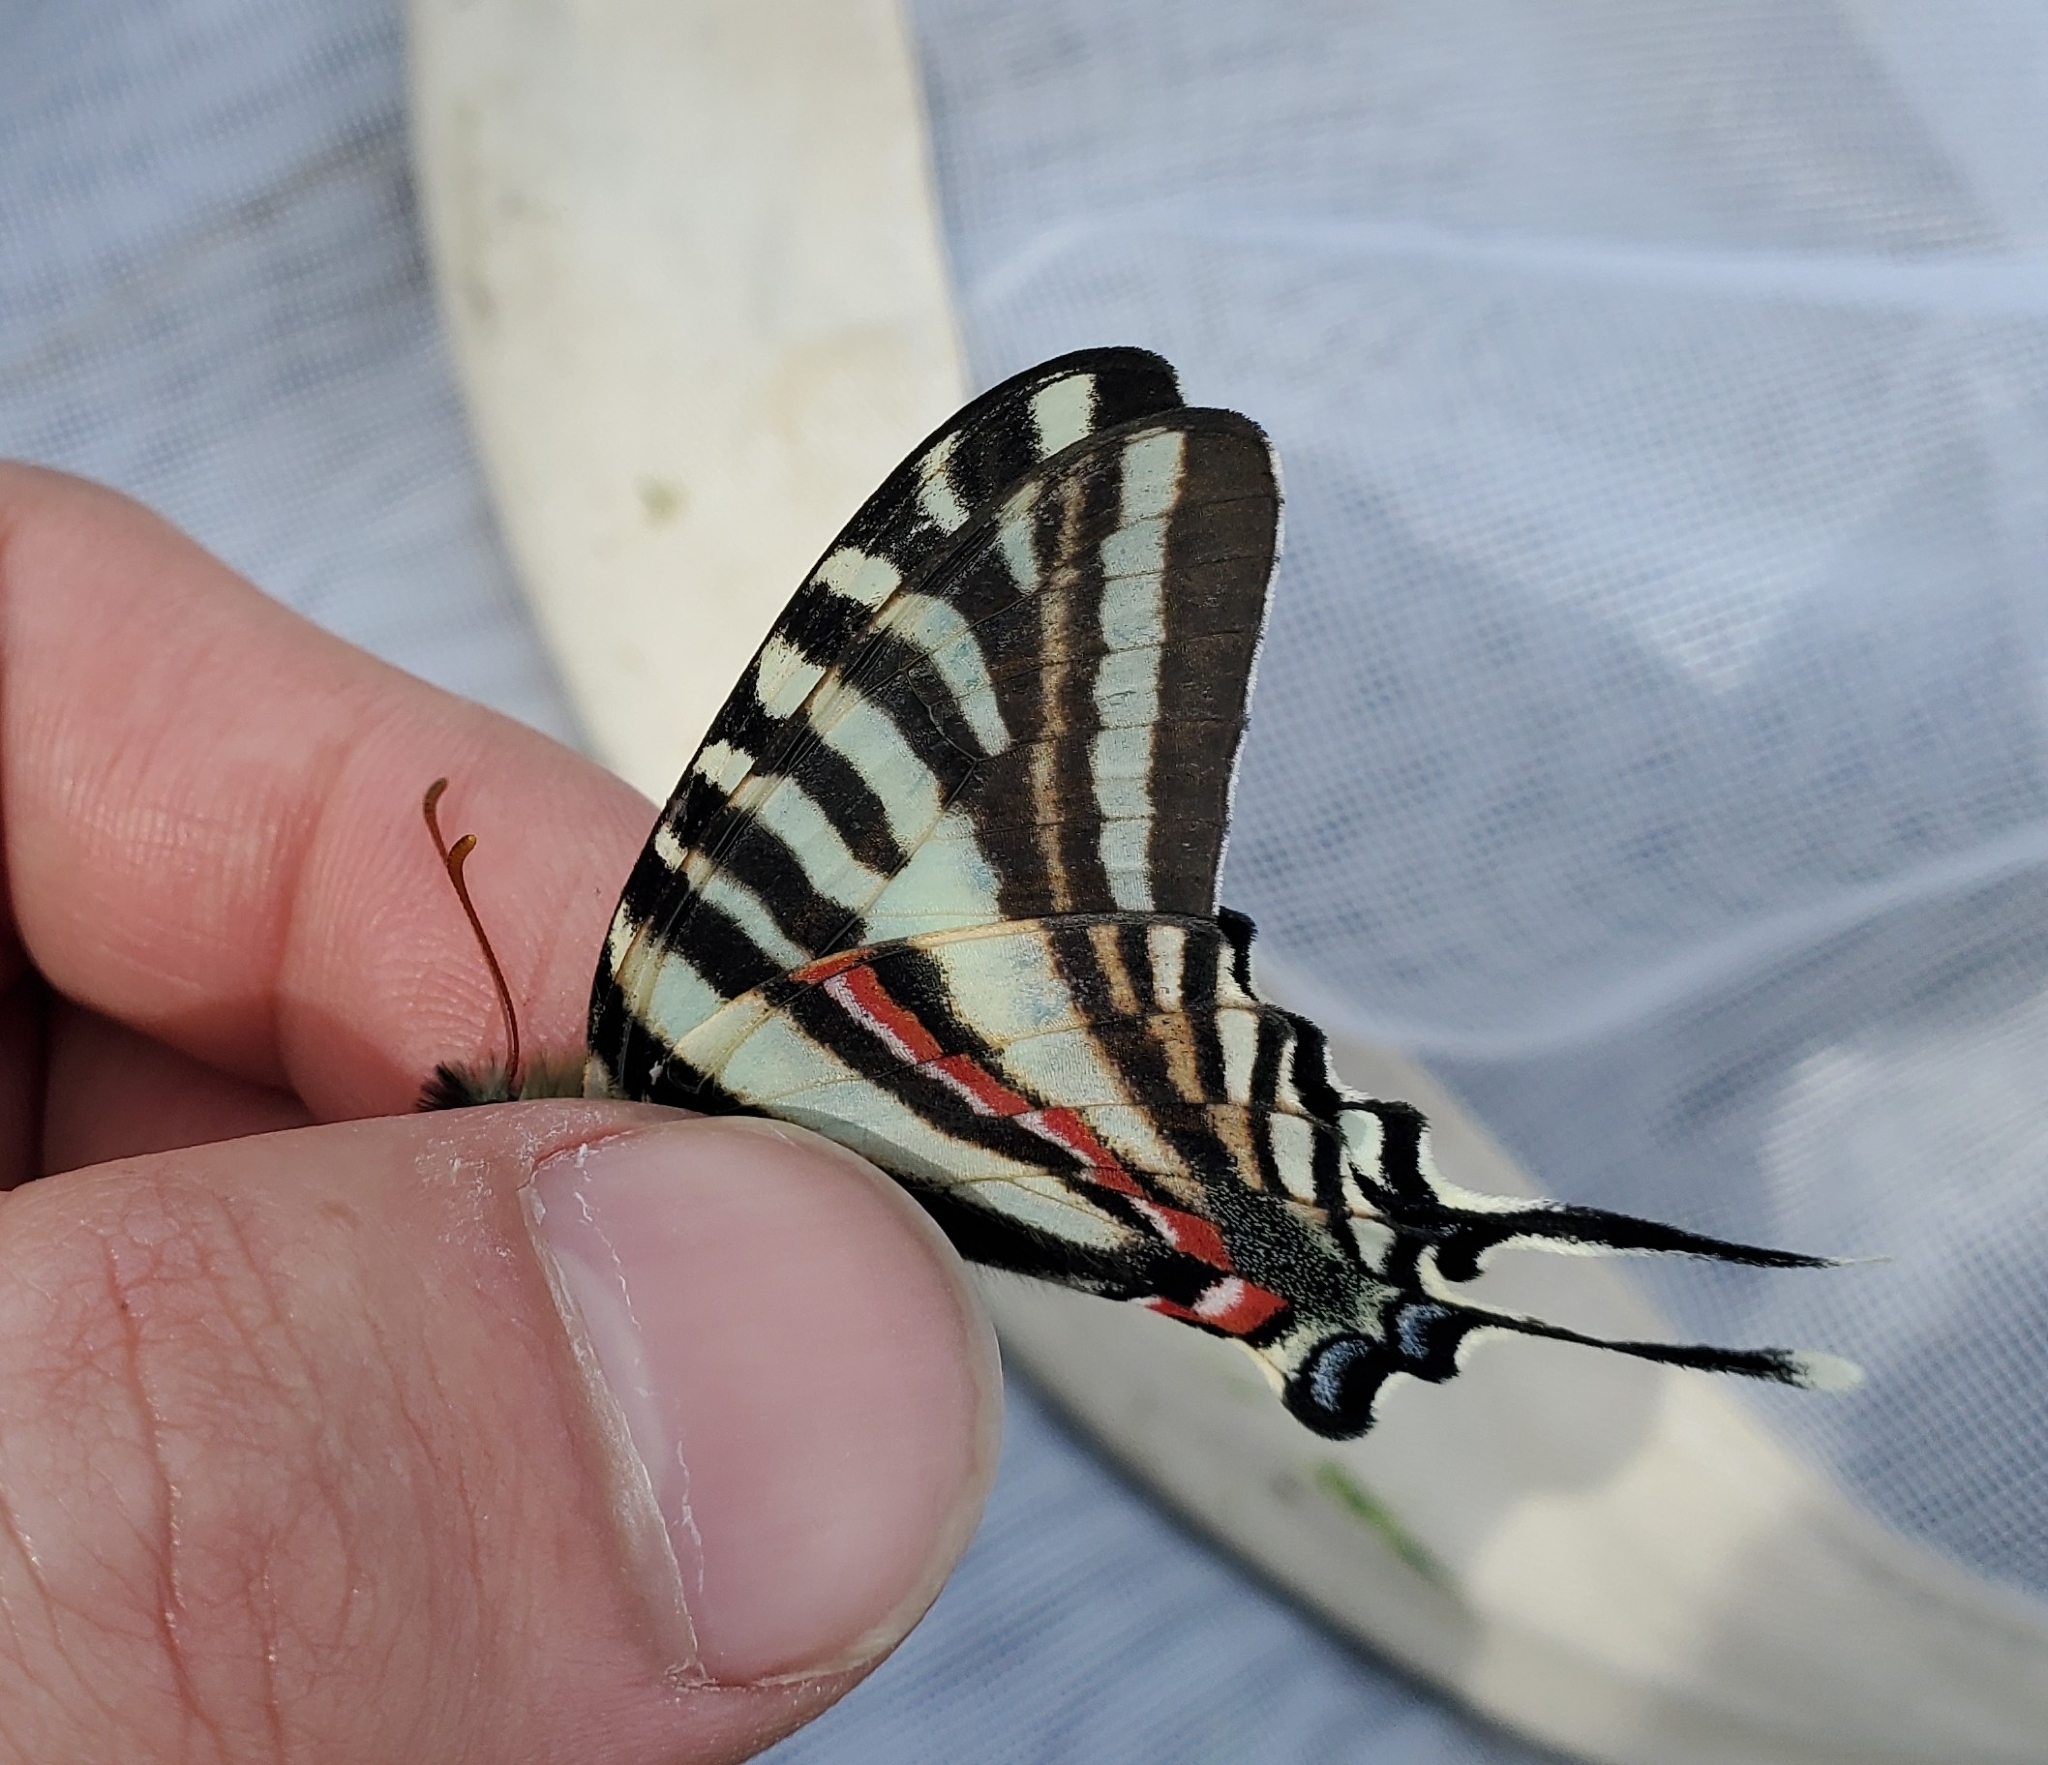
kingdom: Animalia
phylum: Arthropoda
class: Insecta
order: Lepidoptera
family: Papilionidae
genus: Protographium
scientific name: Protographium marcellus
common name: Zebra swallowtail
